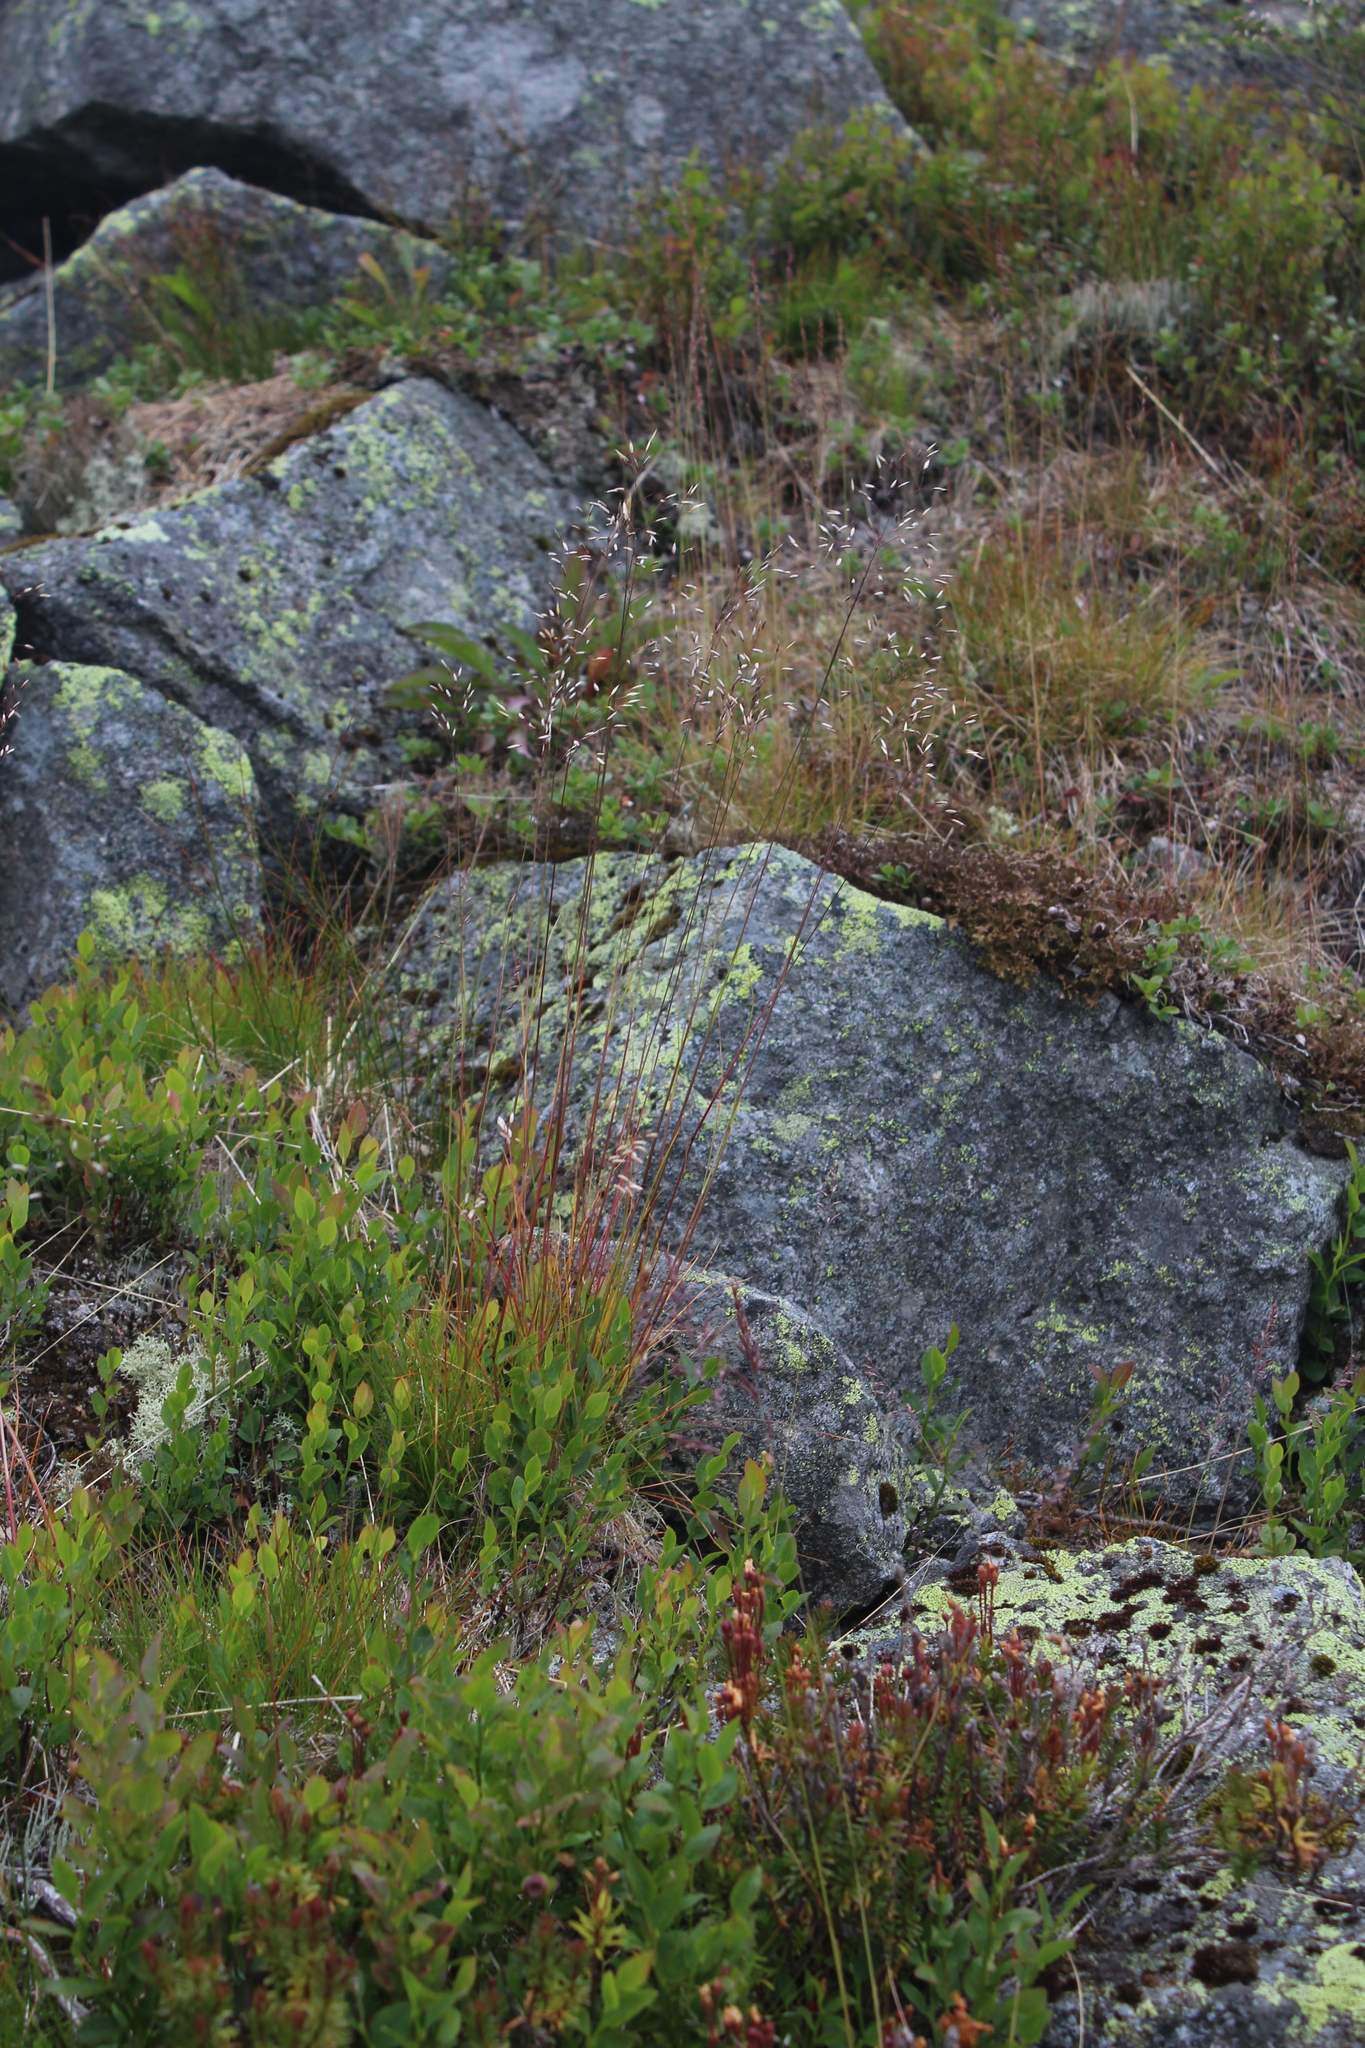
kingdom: Plantae
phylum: Tracheophyta
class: Liliopsida
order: Poales
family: Poaceae
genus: Avenella
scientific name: Avenella flexuosa
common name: Wavy hairgrass
